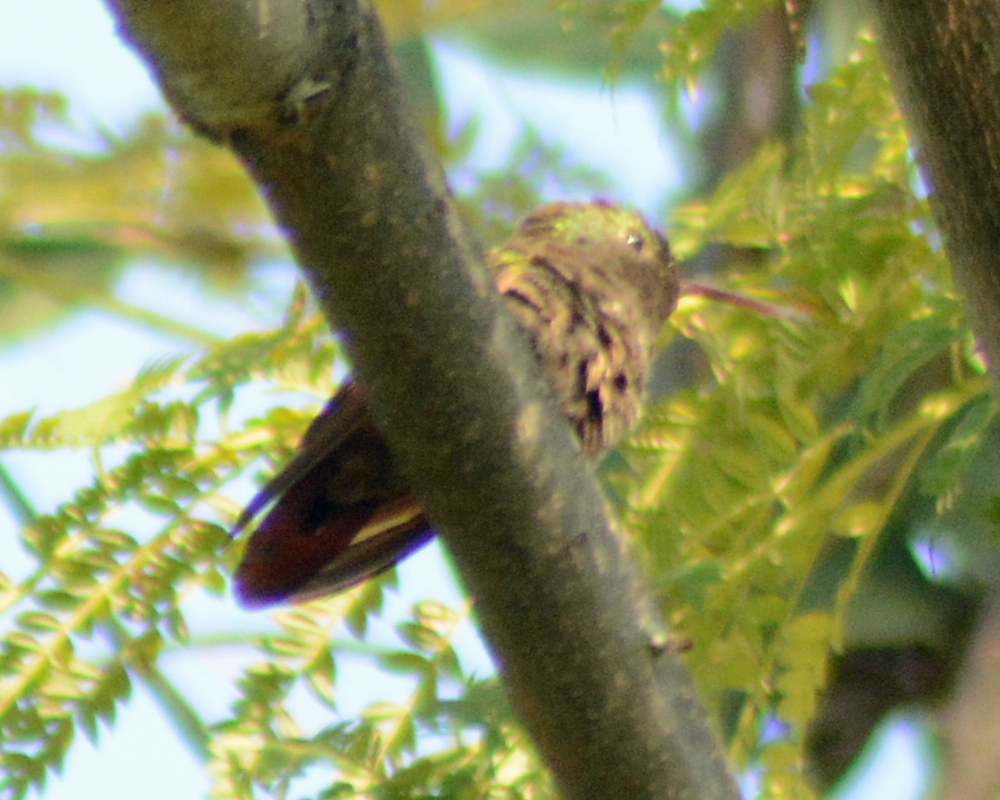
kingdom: Animalia
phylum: Chordata
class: Aves
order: Apodiformes
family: Trochilidae
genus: Saucerottia
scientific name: Saucerottia beryllina
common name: Berylline hummingbird
